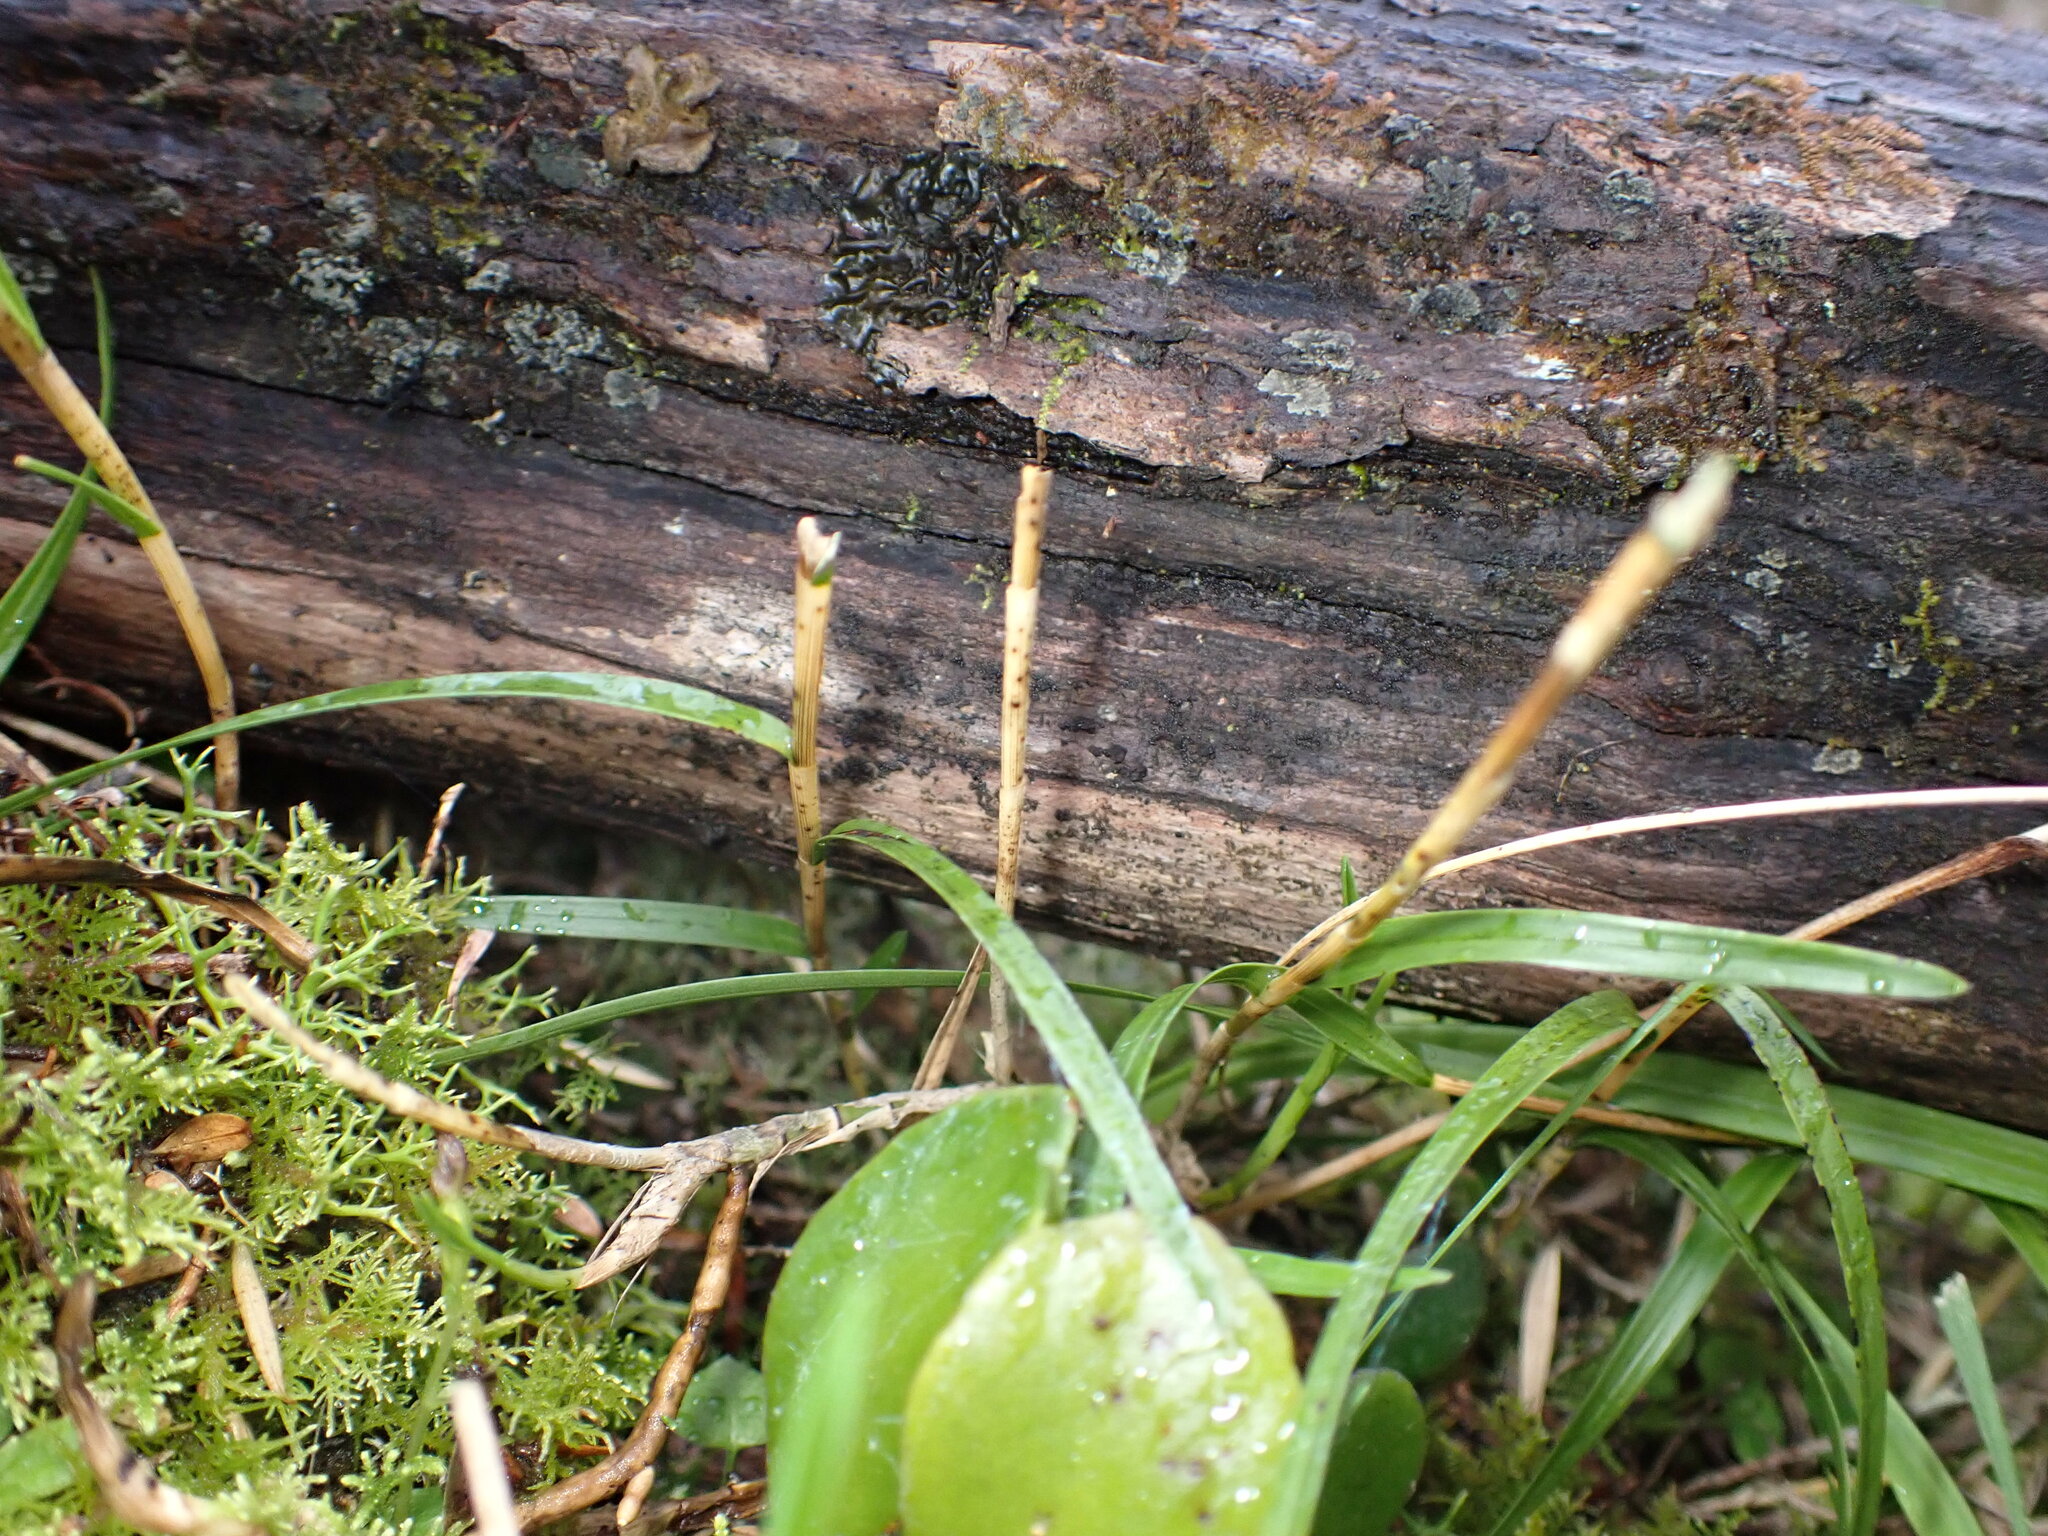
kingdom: Plantae
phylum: Tracheophyta
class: Liliopsida
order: Asparagales
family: Orchidaceae
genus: Dendrobium
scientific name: Dendrobium cunninghamii
